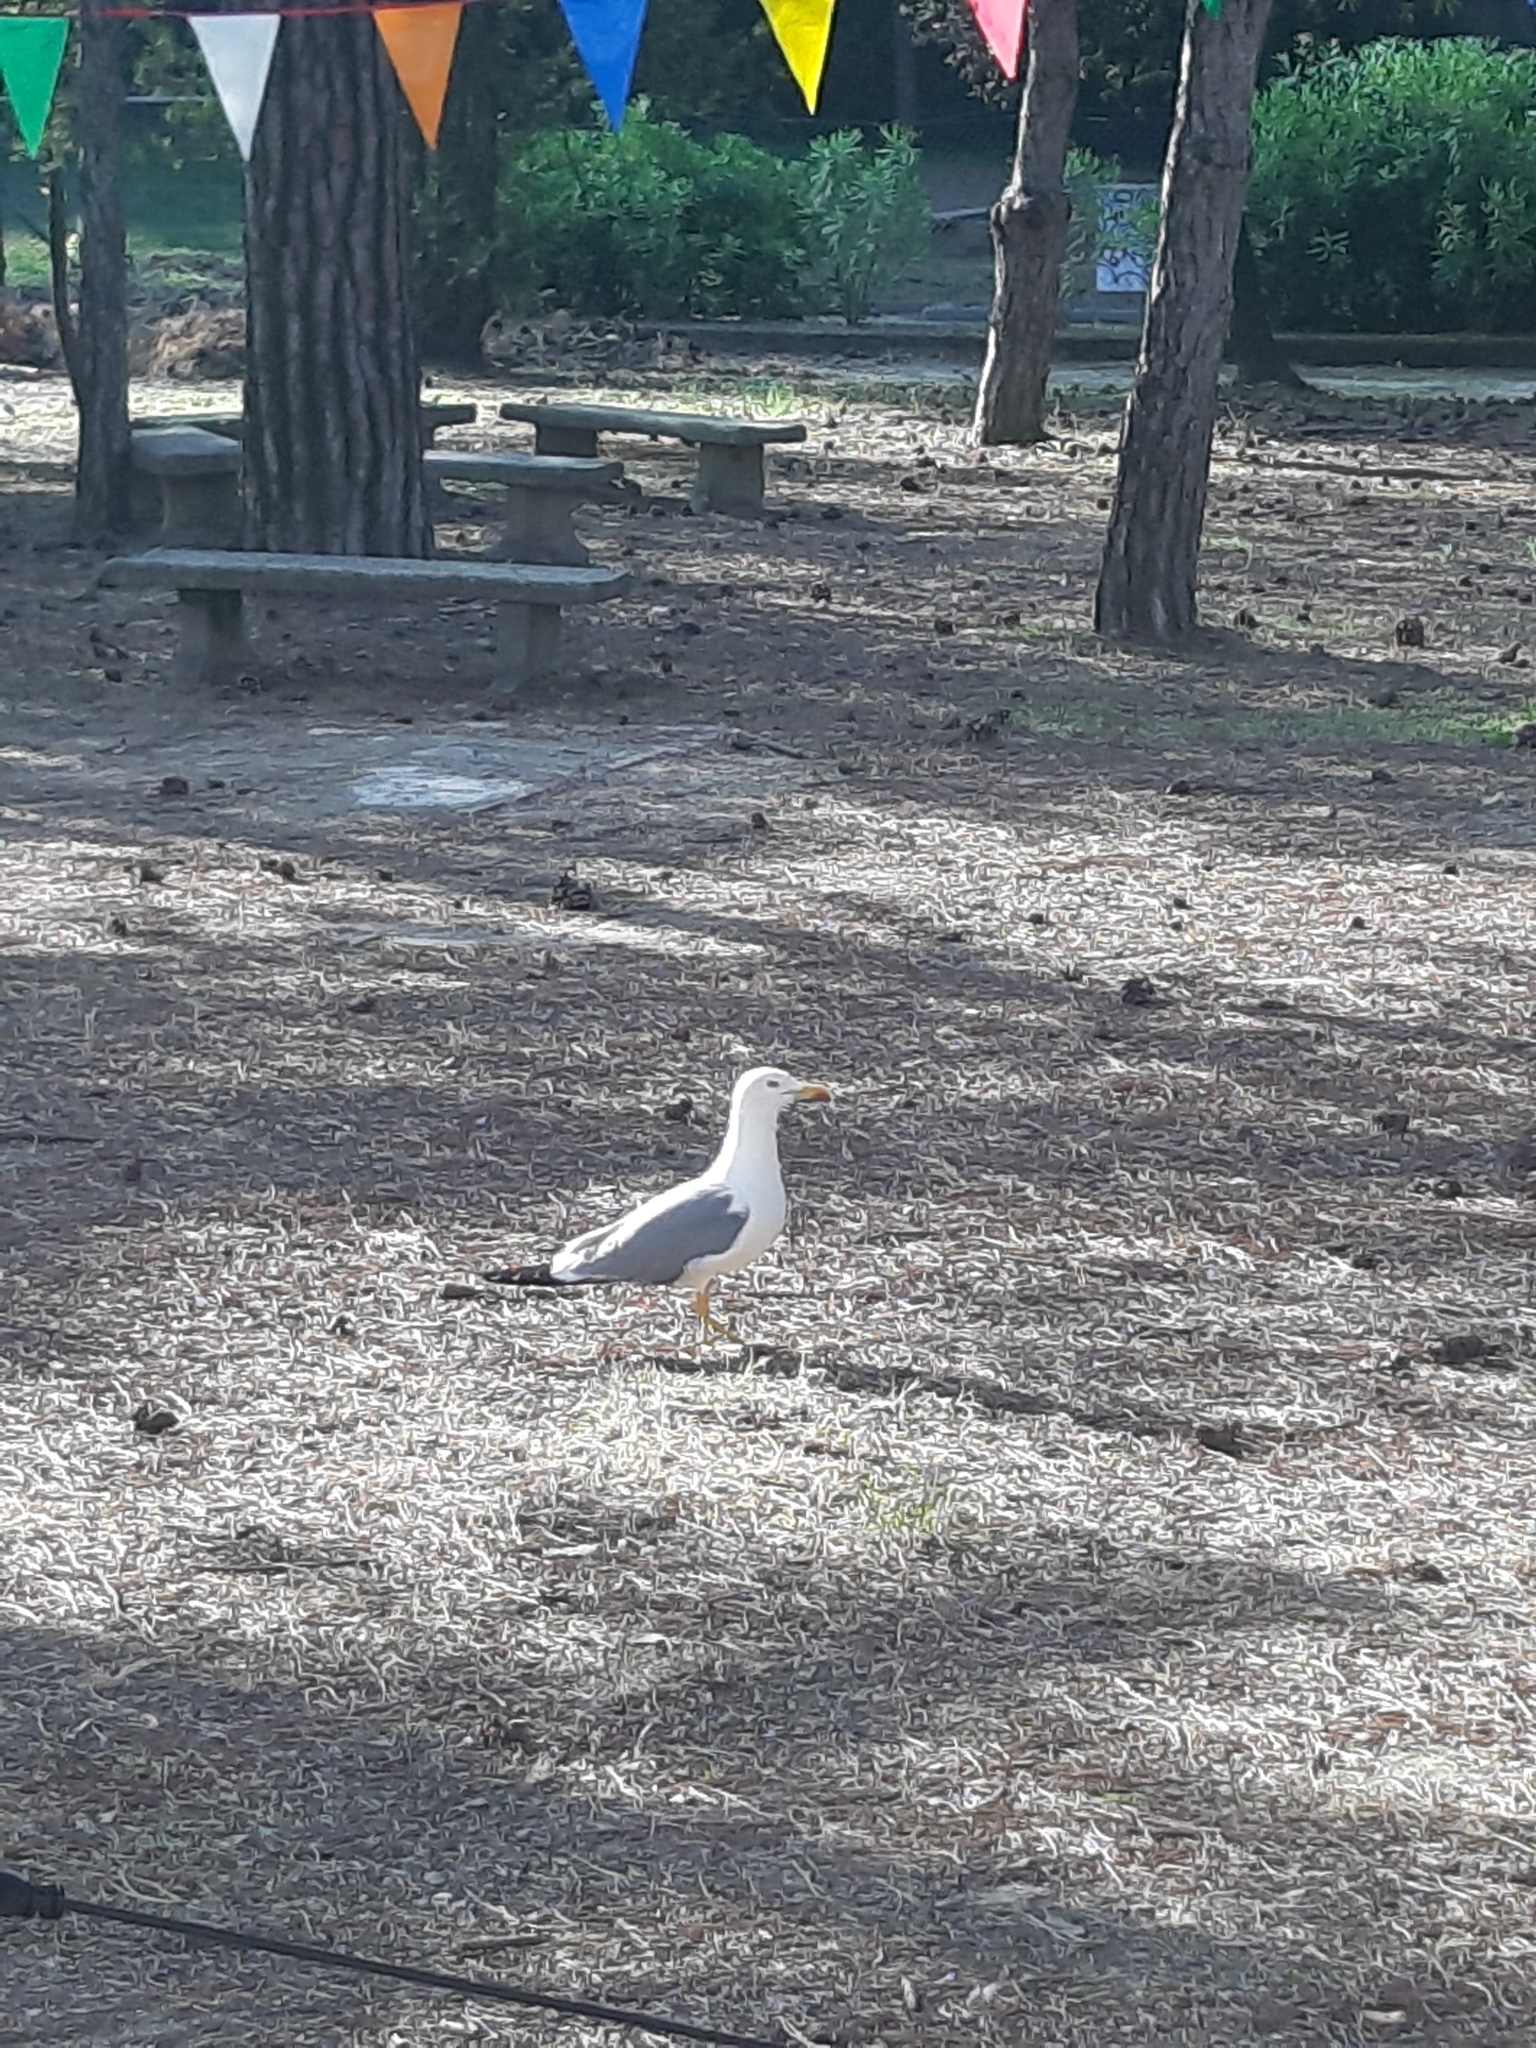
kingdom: Animalia
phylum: Chordata
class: Aves
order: Charadriiformes
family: Laridae
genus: Larus
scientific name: Larus michahellis
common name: Yellow-legged gull
